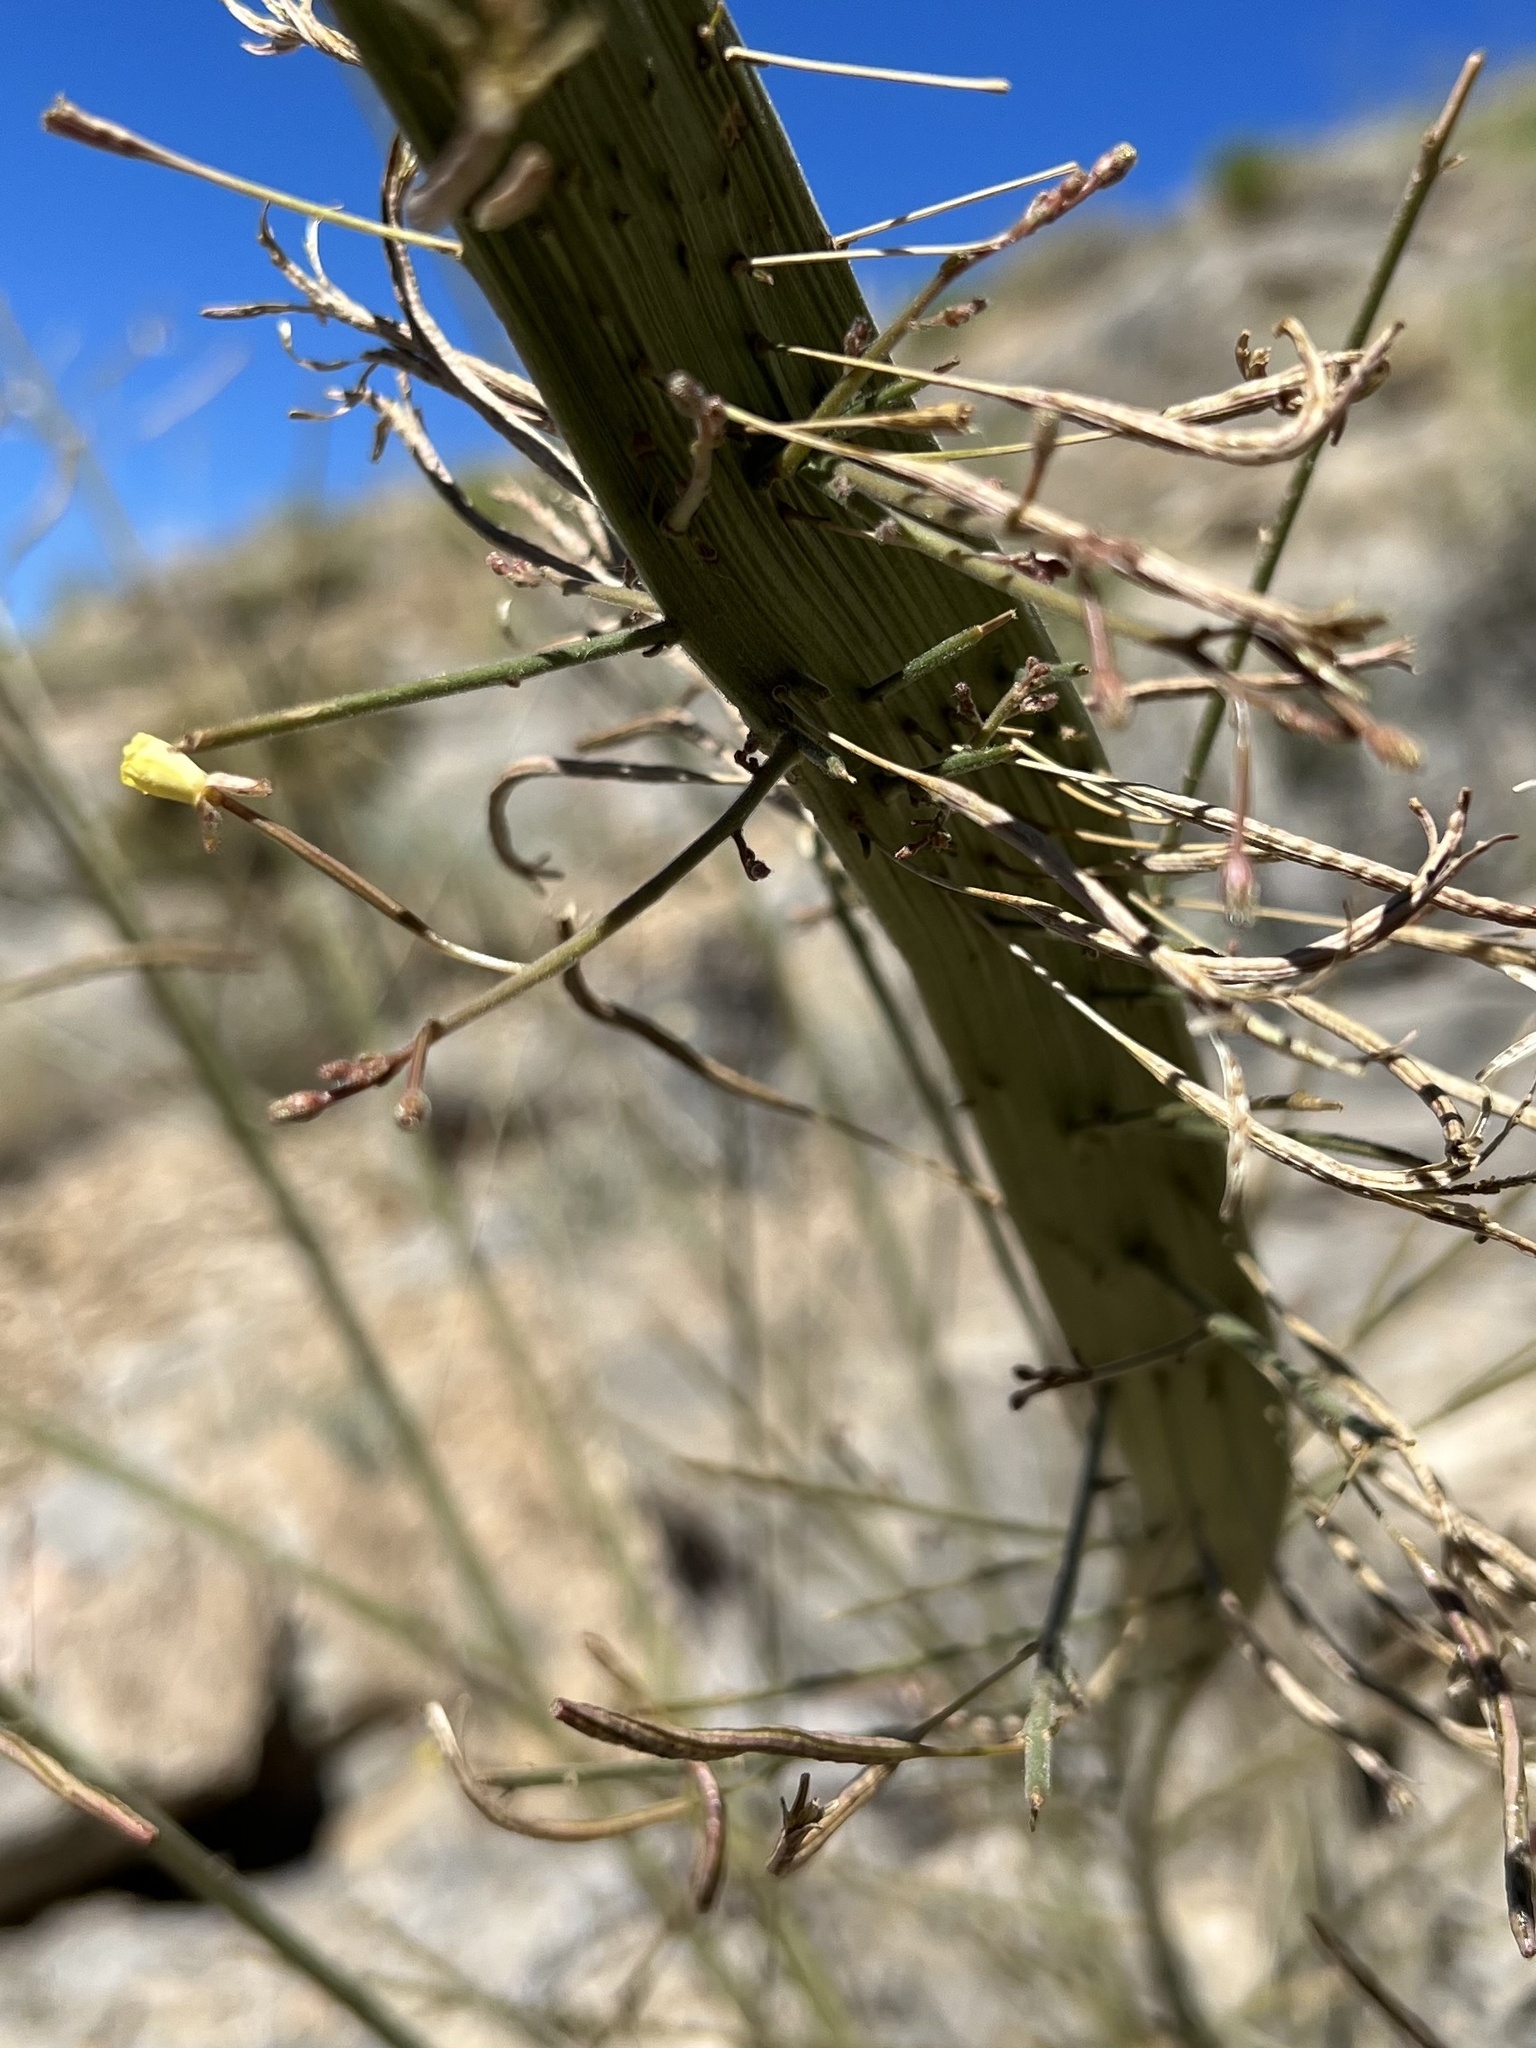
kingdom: Plantae
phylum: Tracheophyta
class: Magnoliopsida
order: Myrtales
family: Onagraceae
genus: Chylismia
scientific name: Chylismia walkeri
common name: Walker's suncup
